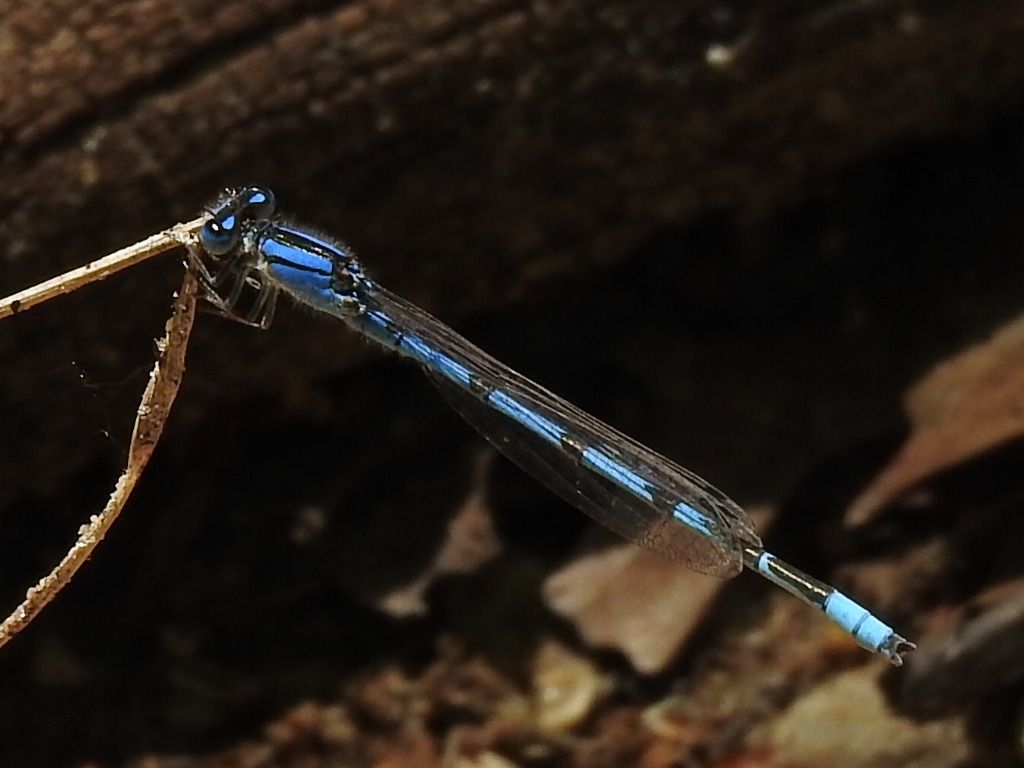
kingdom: Animalia
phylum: Arthropoda
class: Insecta
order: Odonata
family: Coenagrionidae
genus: Enallagma
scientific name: Enallagma civile
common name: Damselfly
